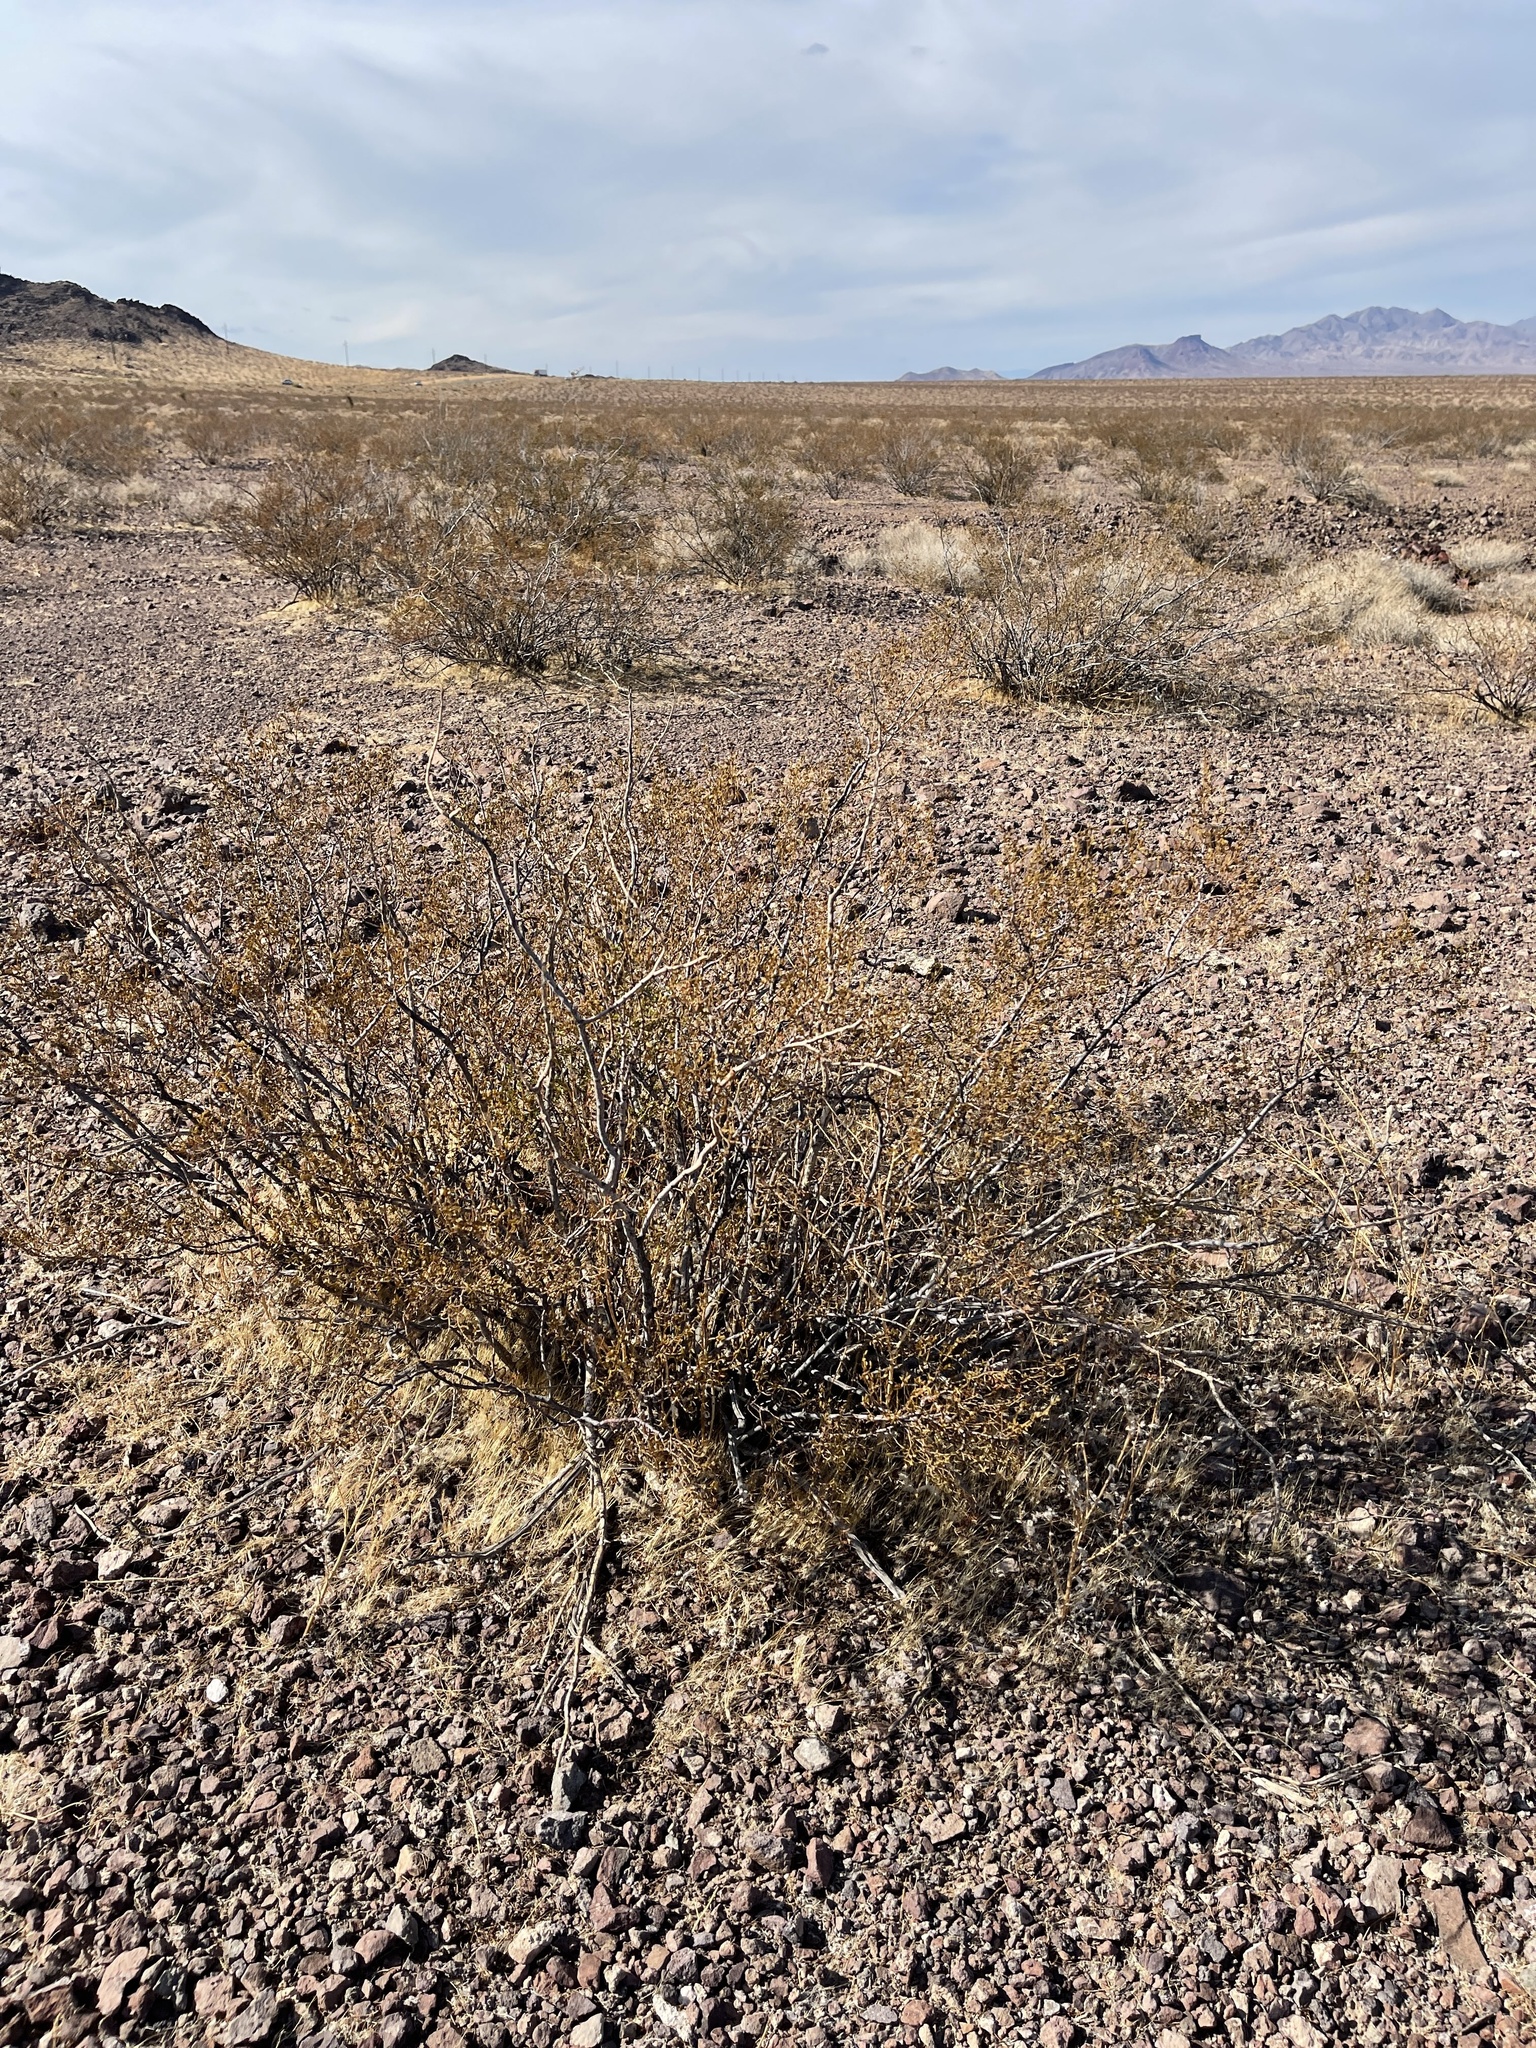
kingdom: Plantae
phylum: Tracheophyta
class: Magnoliopsida
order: Zygophyllales
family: Zygophyllaceae
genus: Larrea
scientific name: Larrea tridentata
